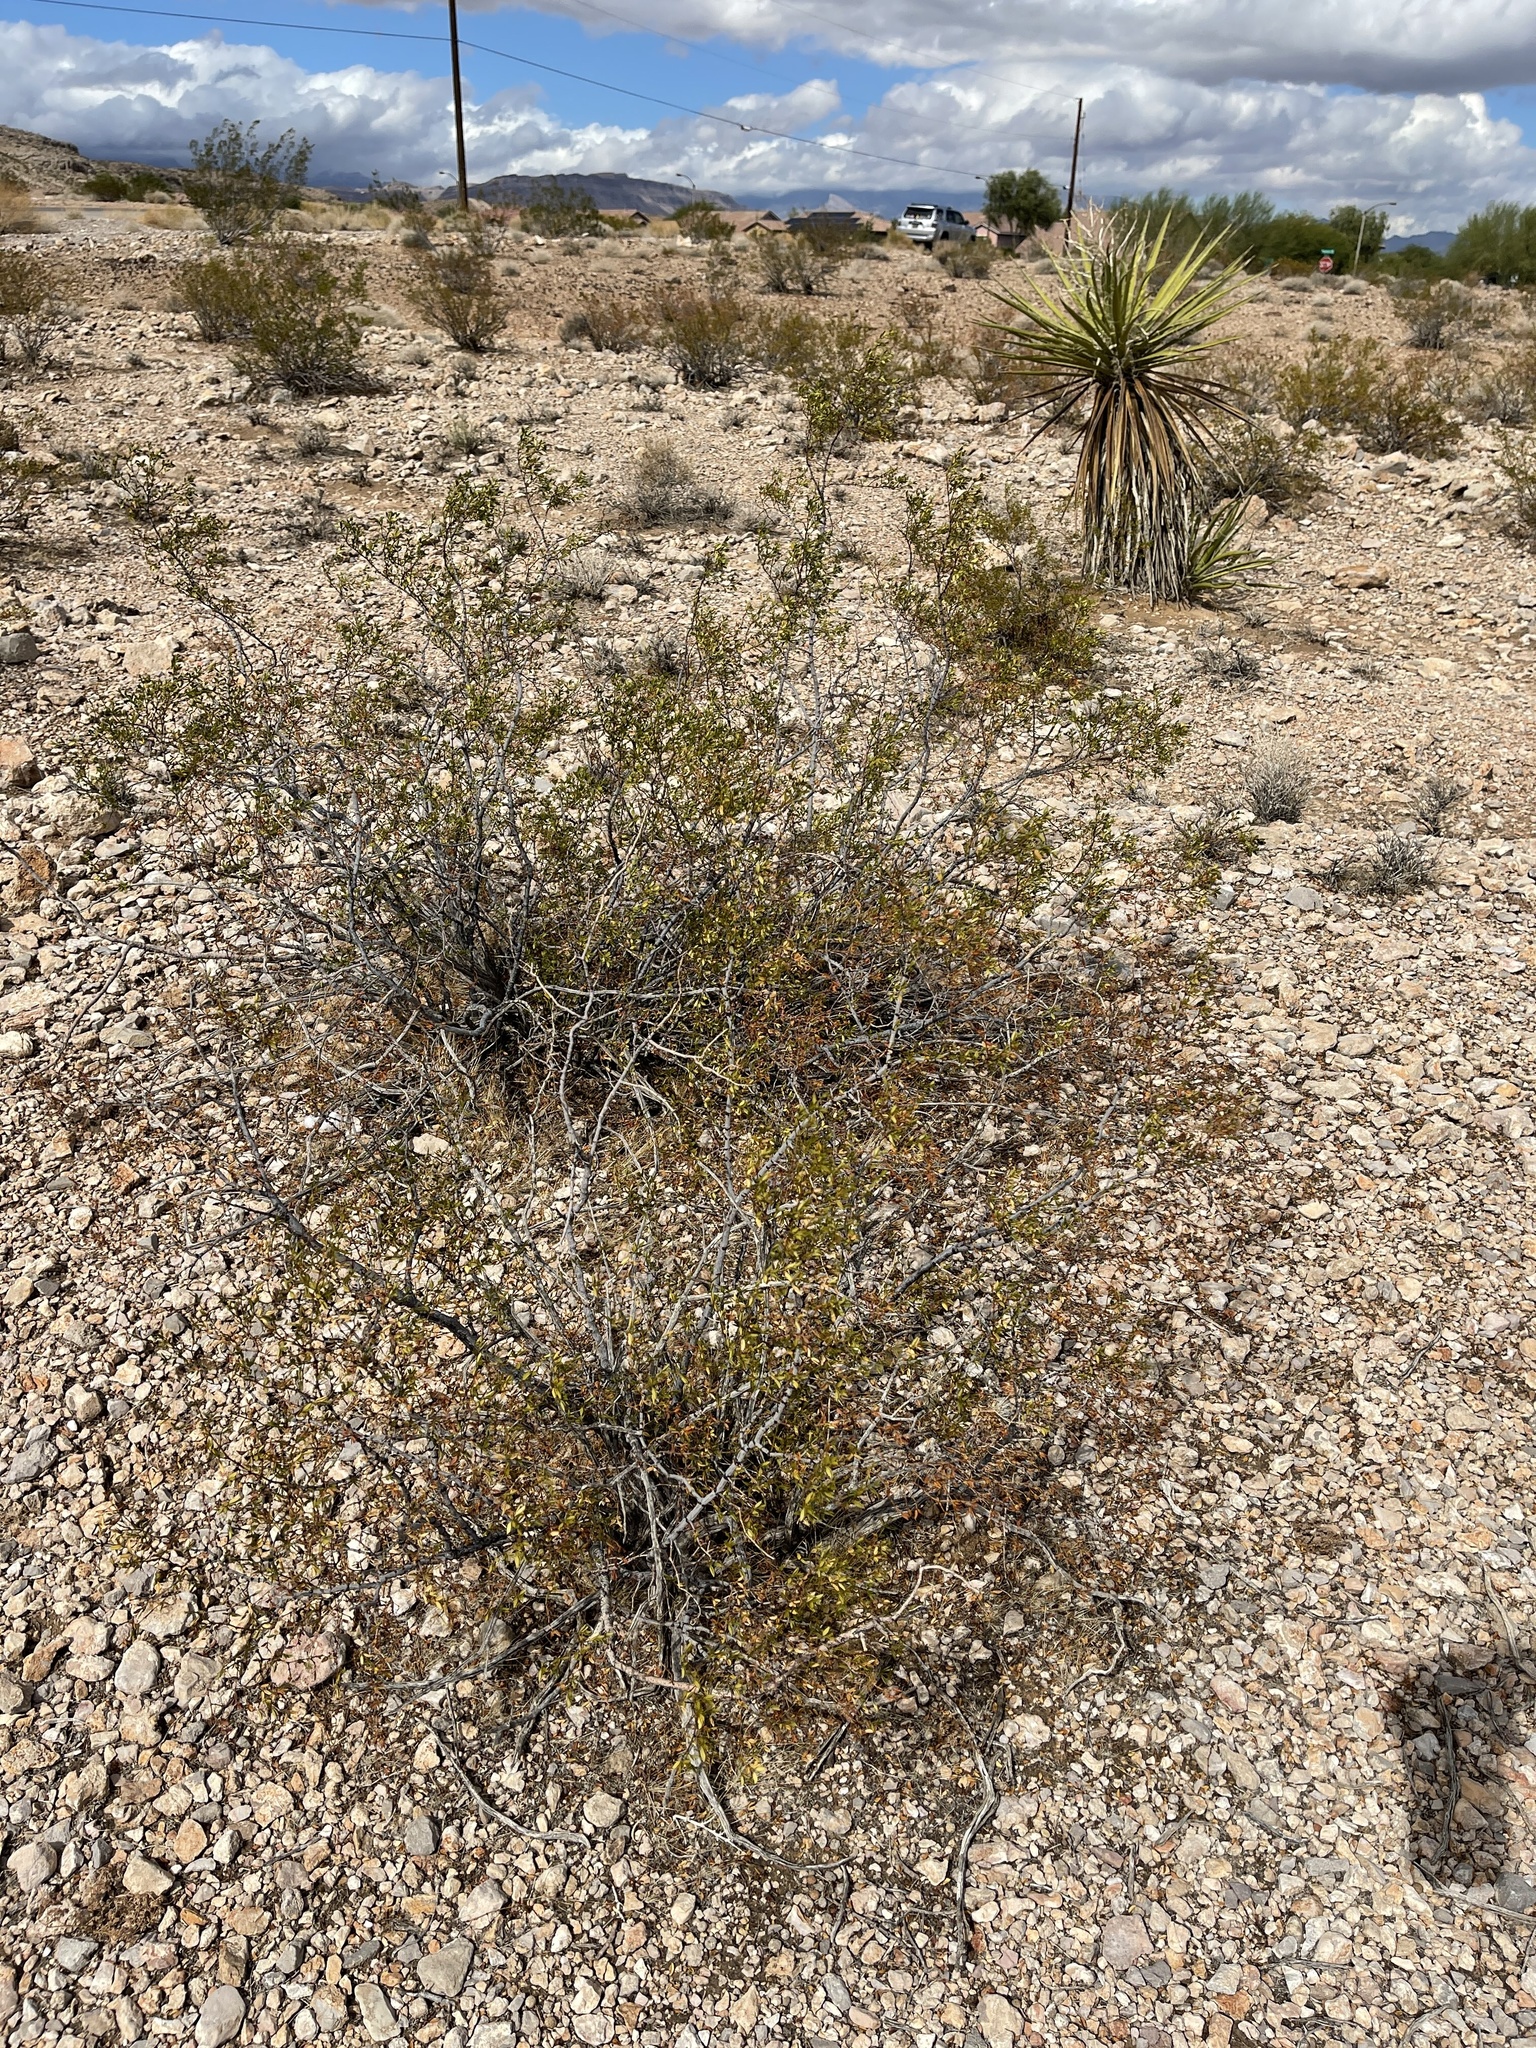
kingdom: Plantae
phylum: Tracheophyta
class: Magnoliopsida
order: Zygophyllales
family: Zygophyllaceae
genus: Larrea
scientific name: Larrea tridentata
